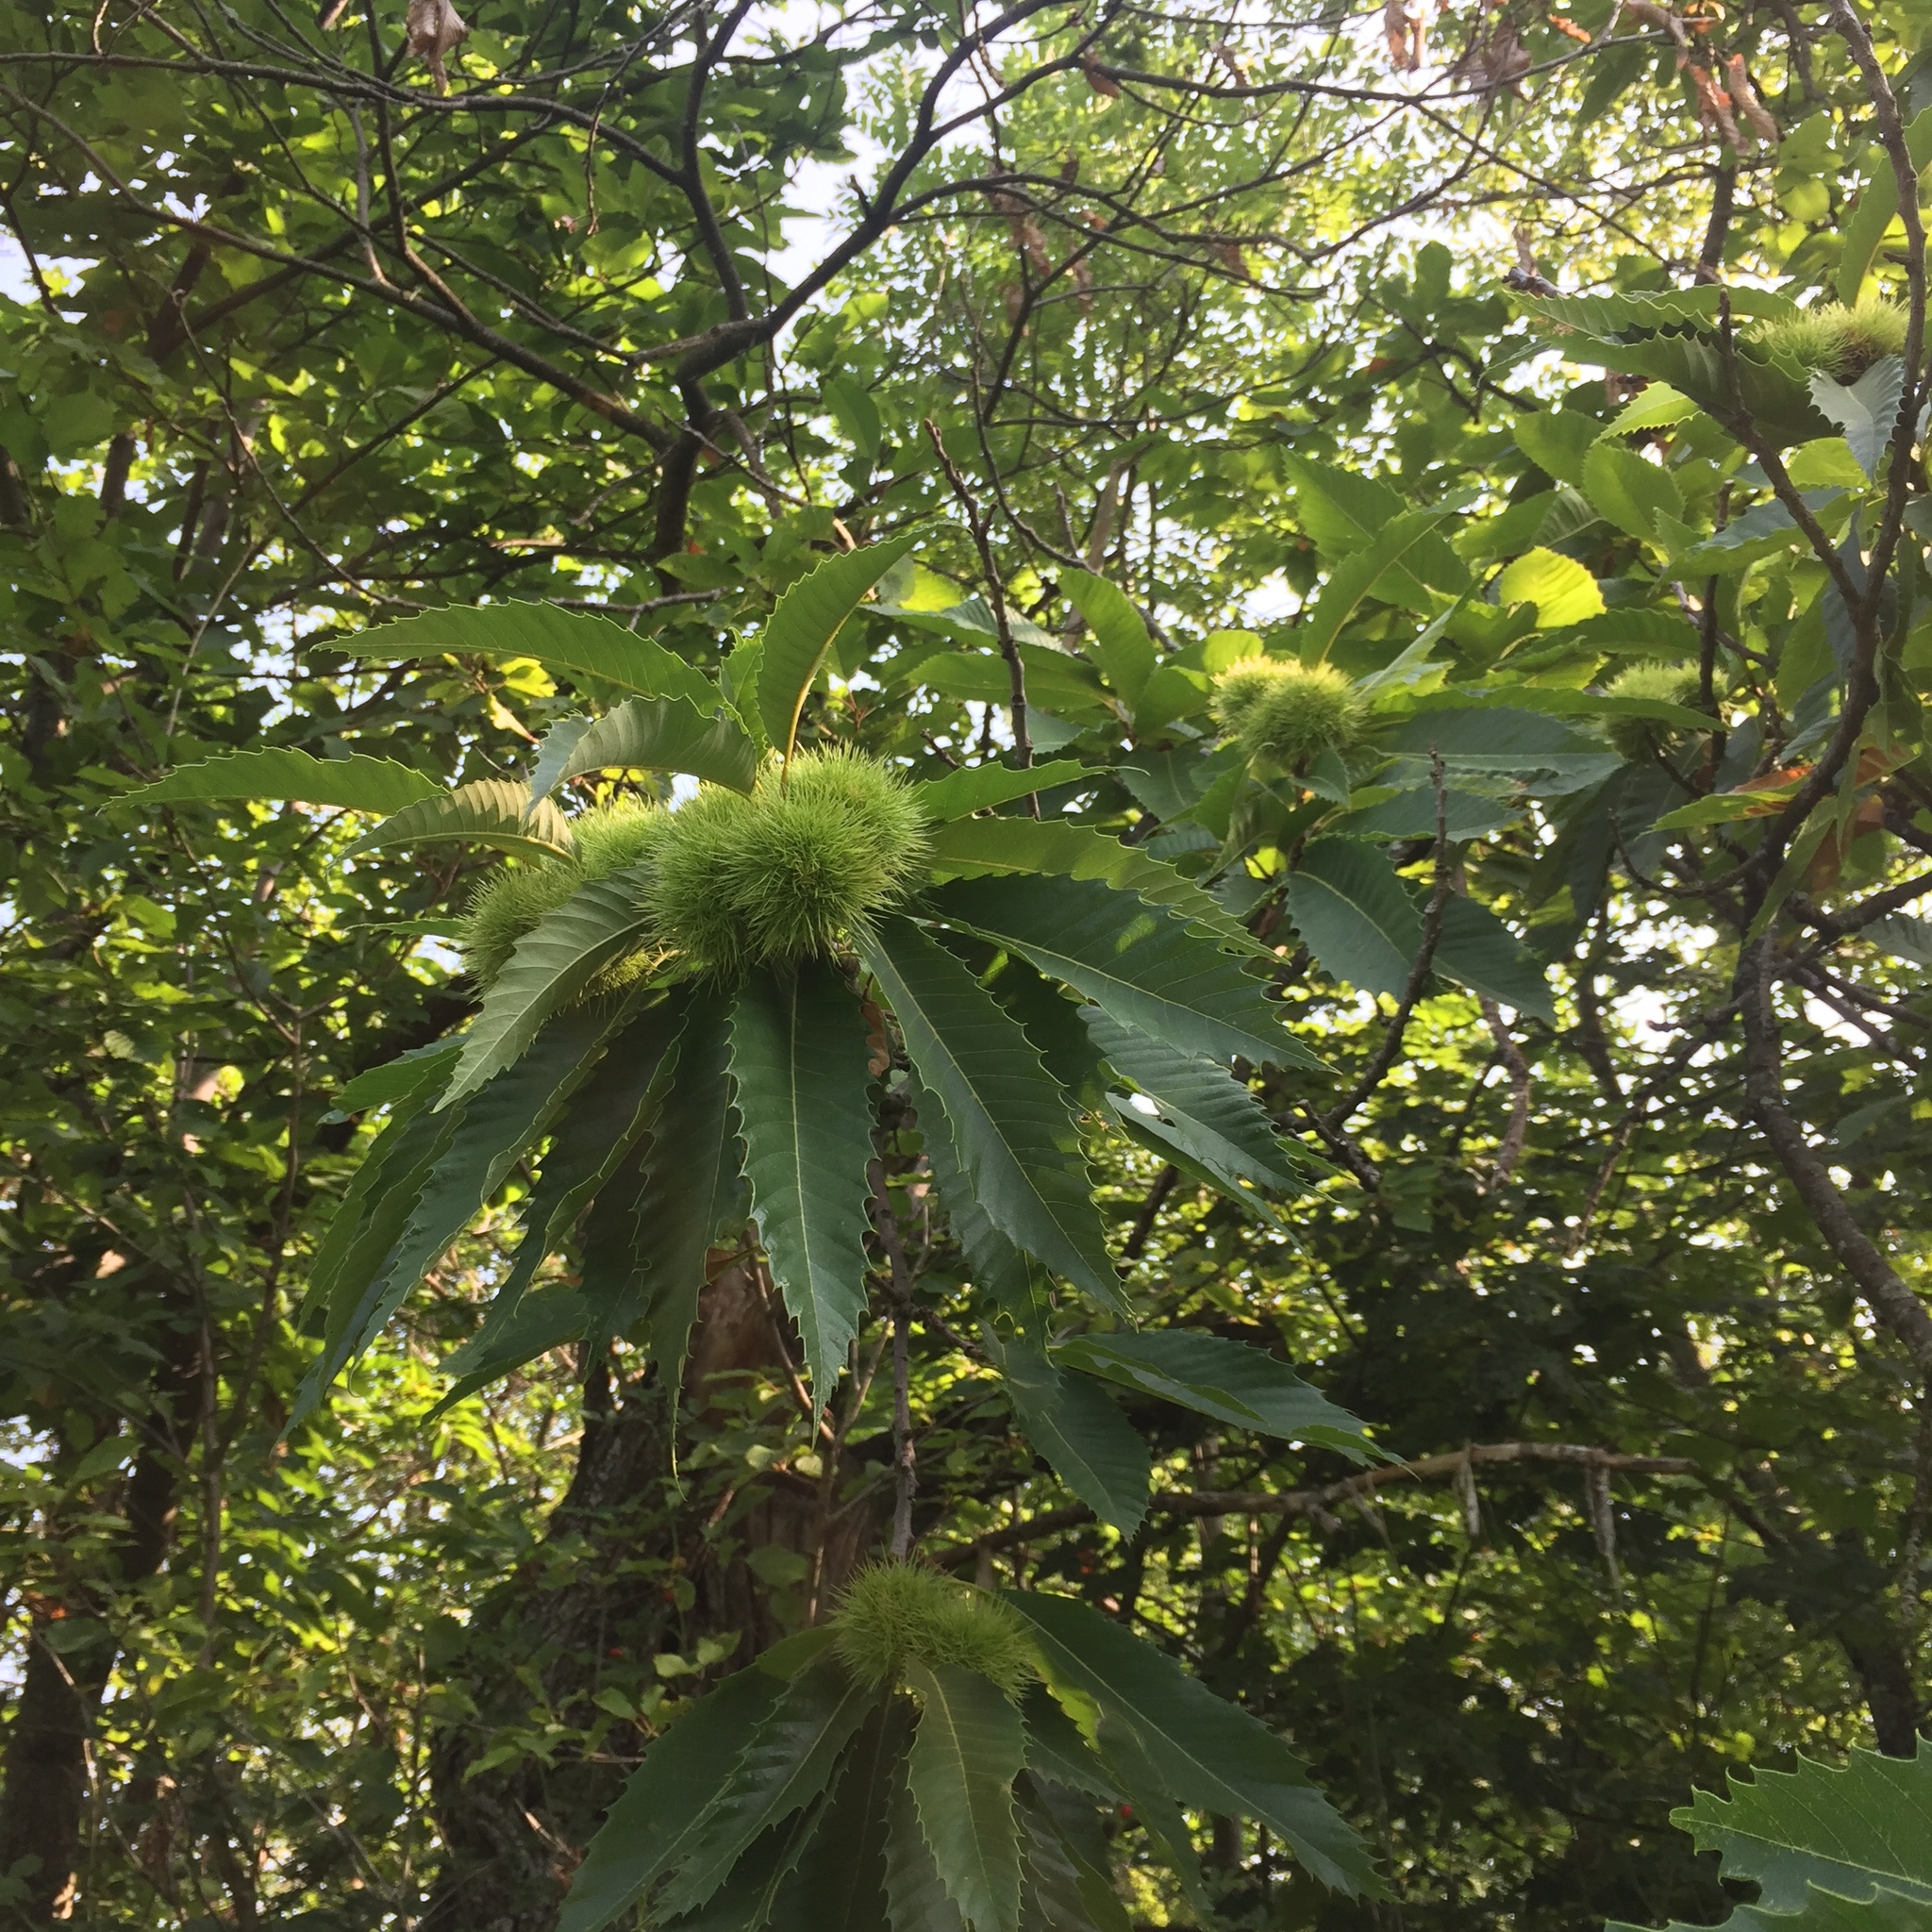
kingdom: Plantae
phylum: Tracheophyta
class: Magnoliopsida
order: Fagales
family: Fagaceae
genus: Castanea
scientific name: Castanea sativa
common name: Sweet chestnut
